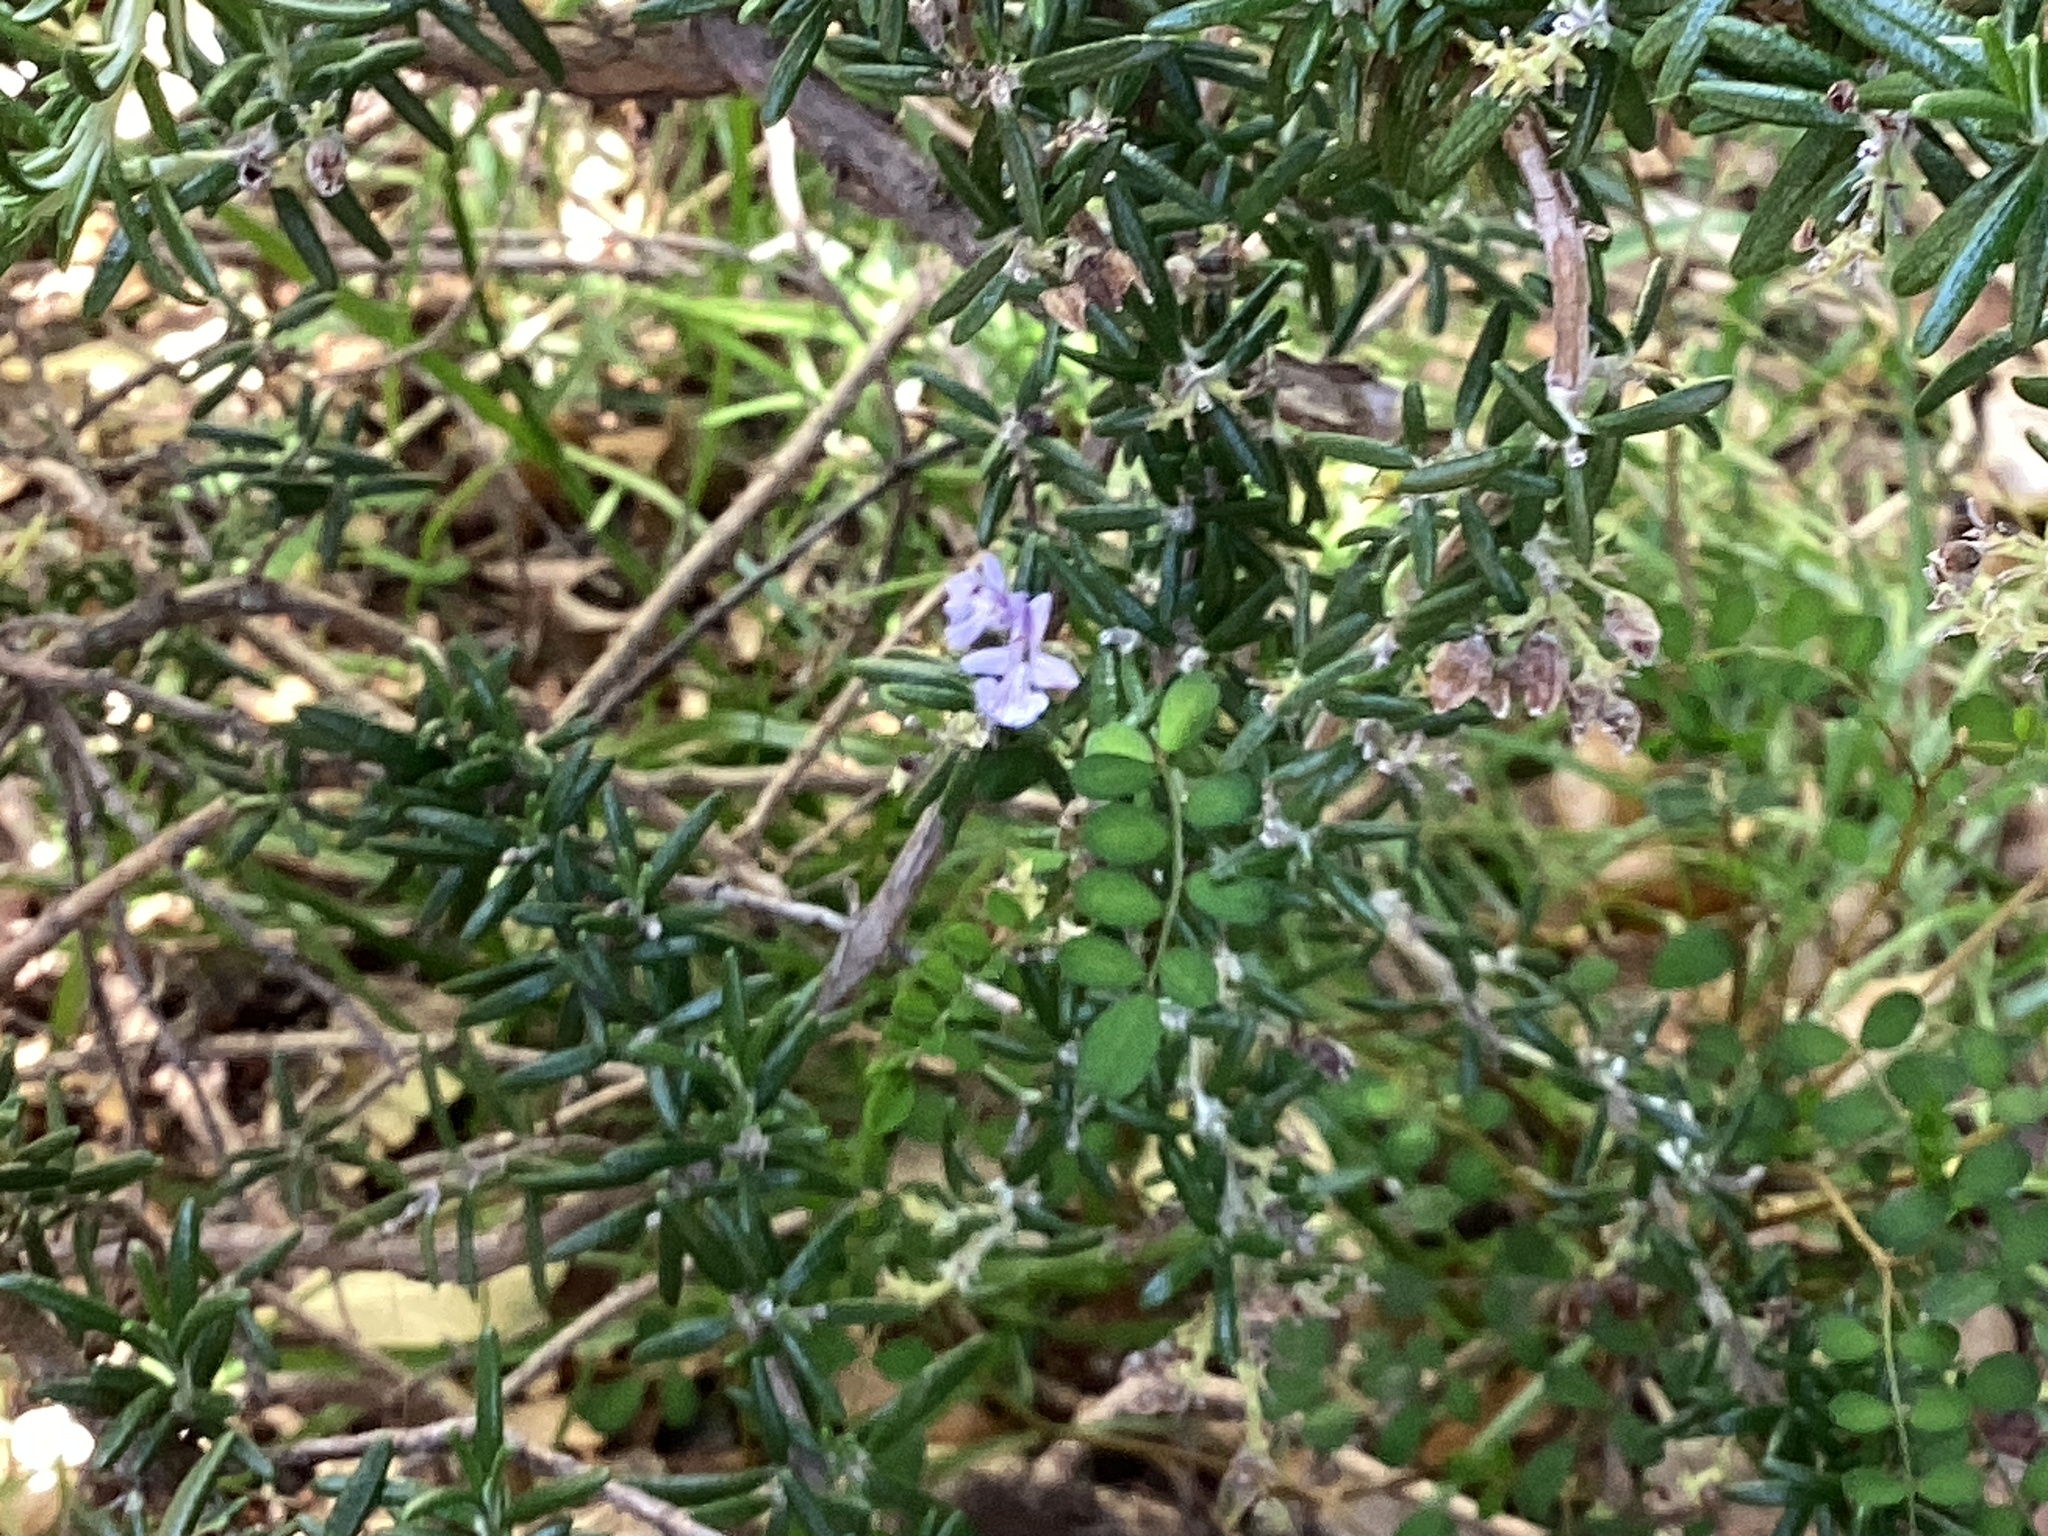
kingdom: Plantae
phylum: Tracheophyta
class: Magnoliopsida
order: Lamiales
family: Lamiaceae
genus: Salvia
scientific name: Salvia rosmarinus
